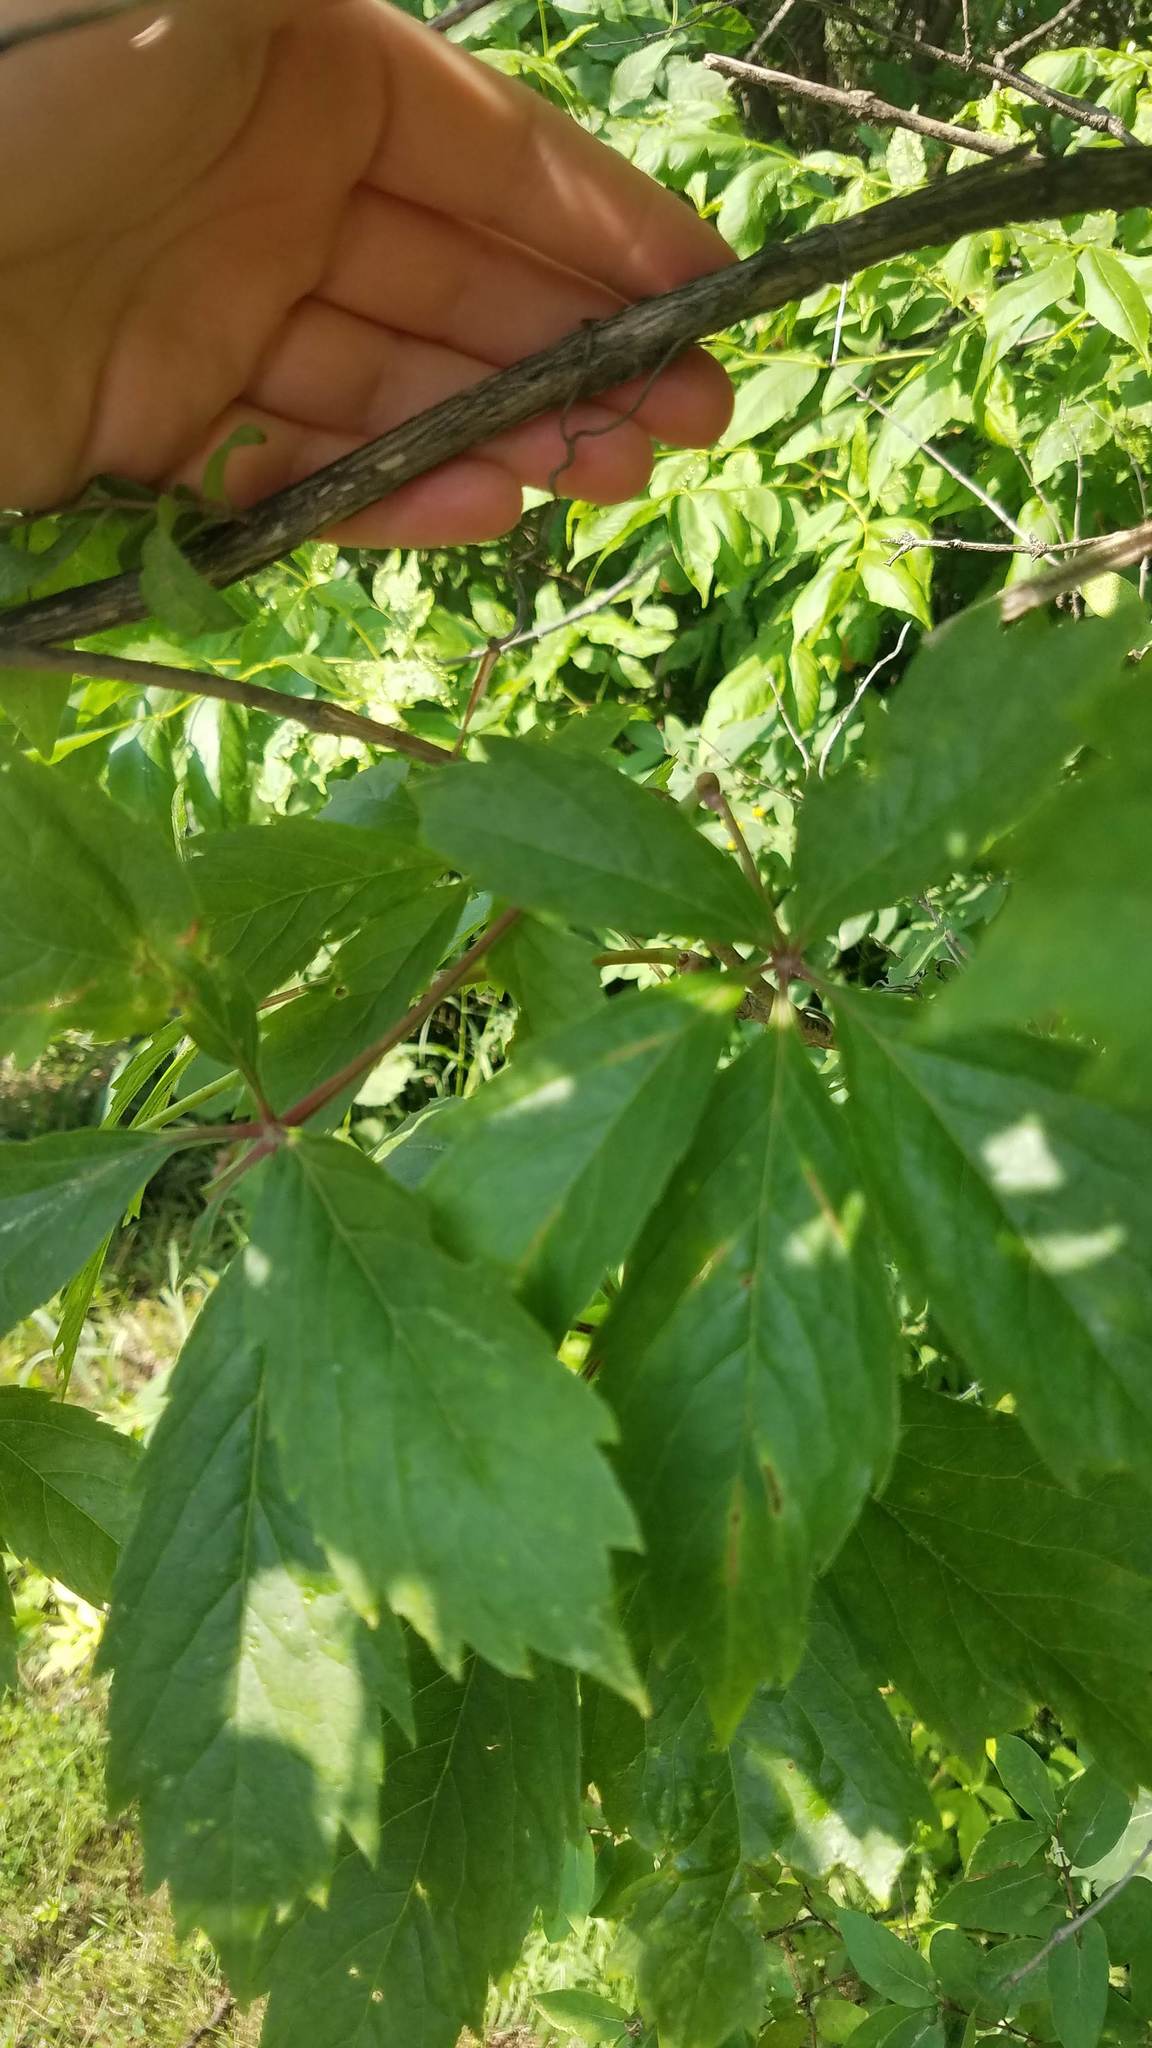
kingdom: Plantae
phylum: Tracheophyta
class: Magnoliopsida
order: Vitales
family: Vitaceae
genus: Parthenocissus
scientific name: Parthenocissus quinquefolia
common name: Virginia-creeper
